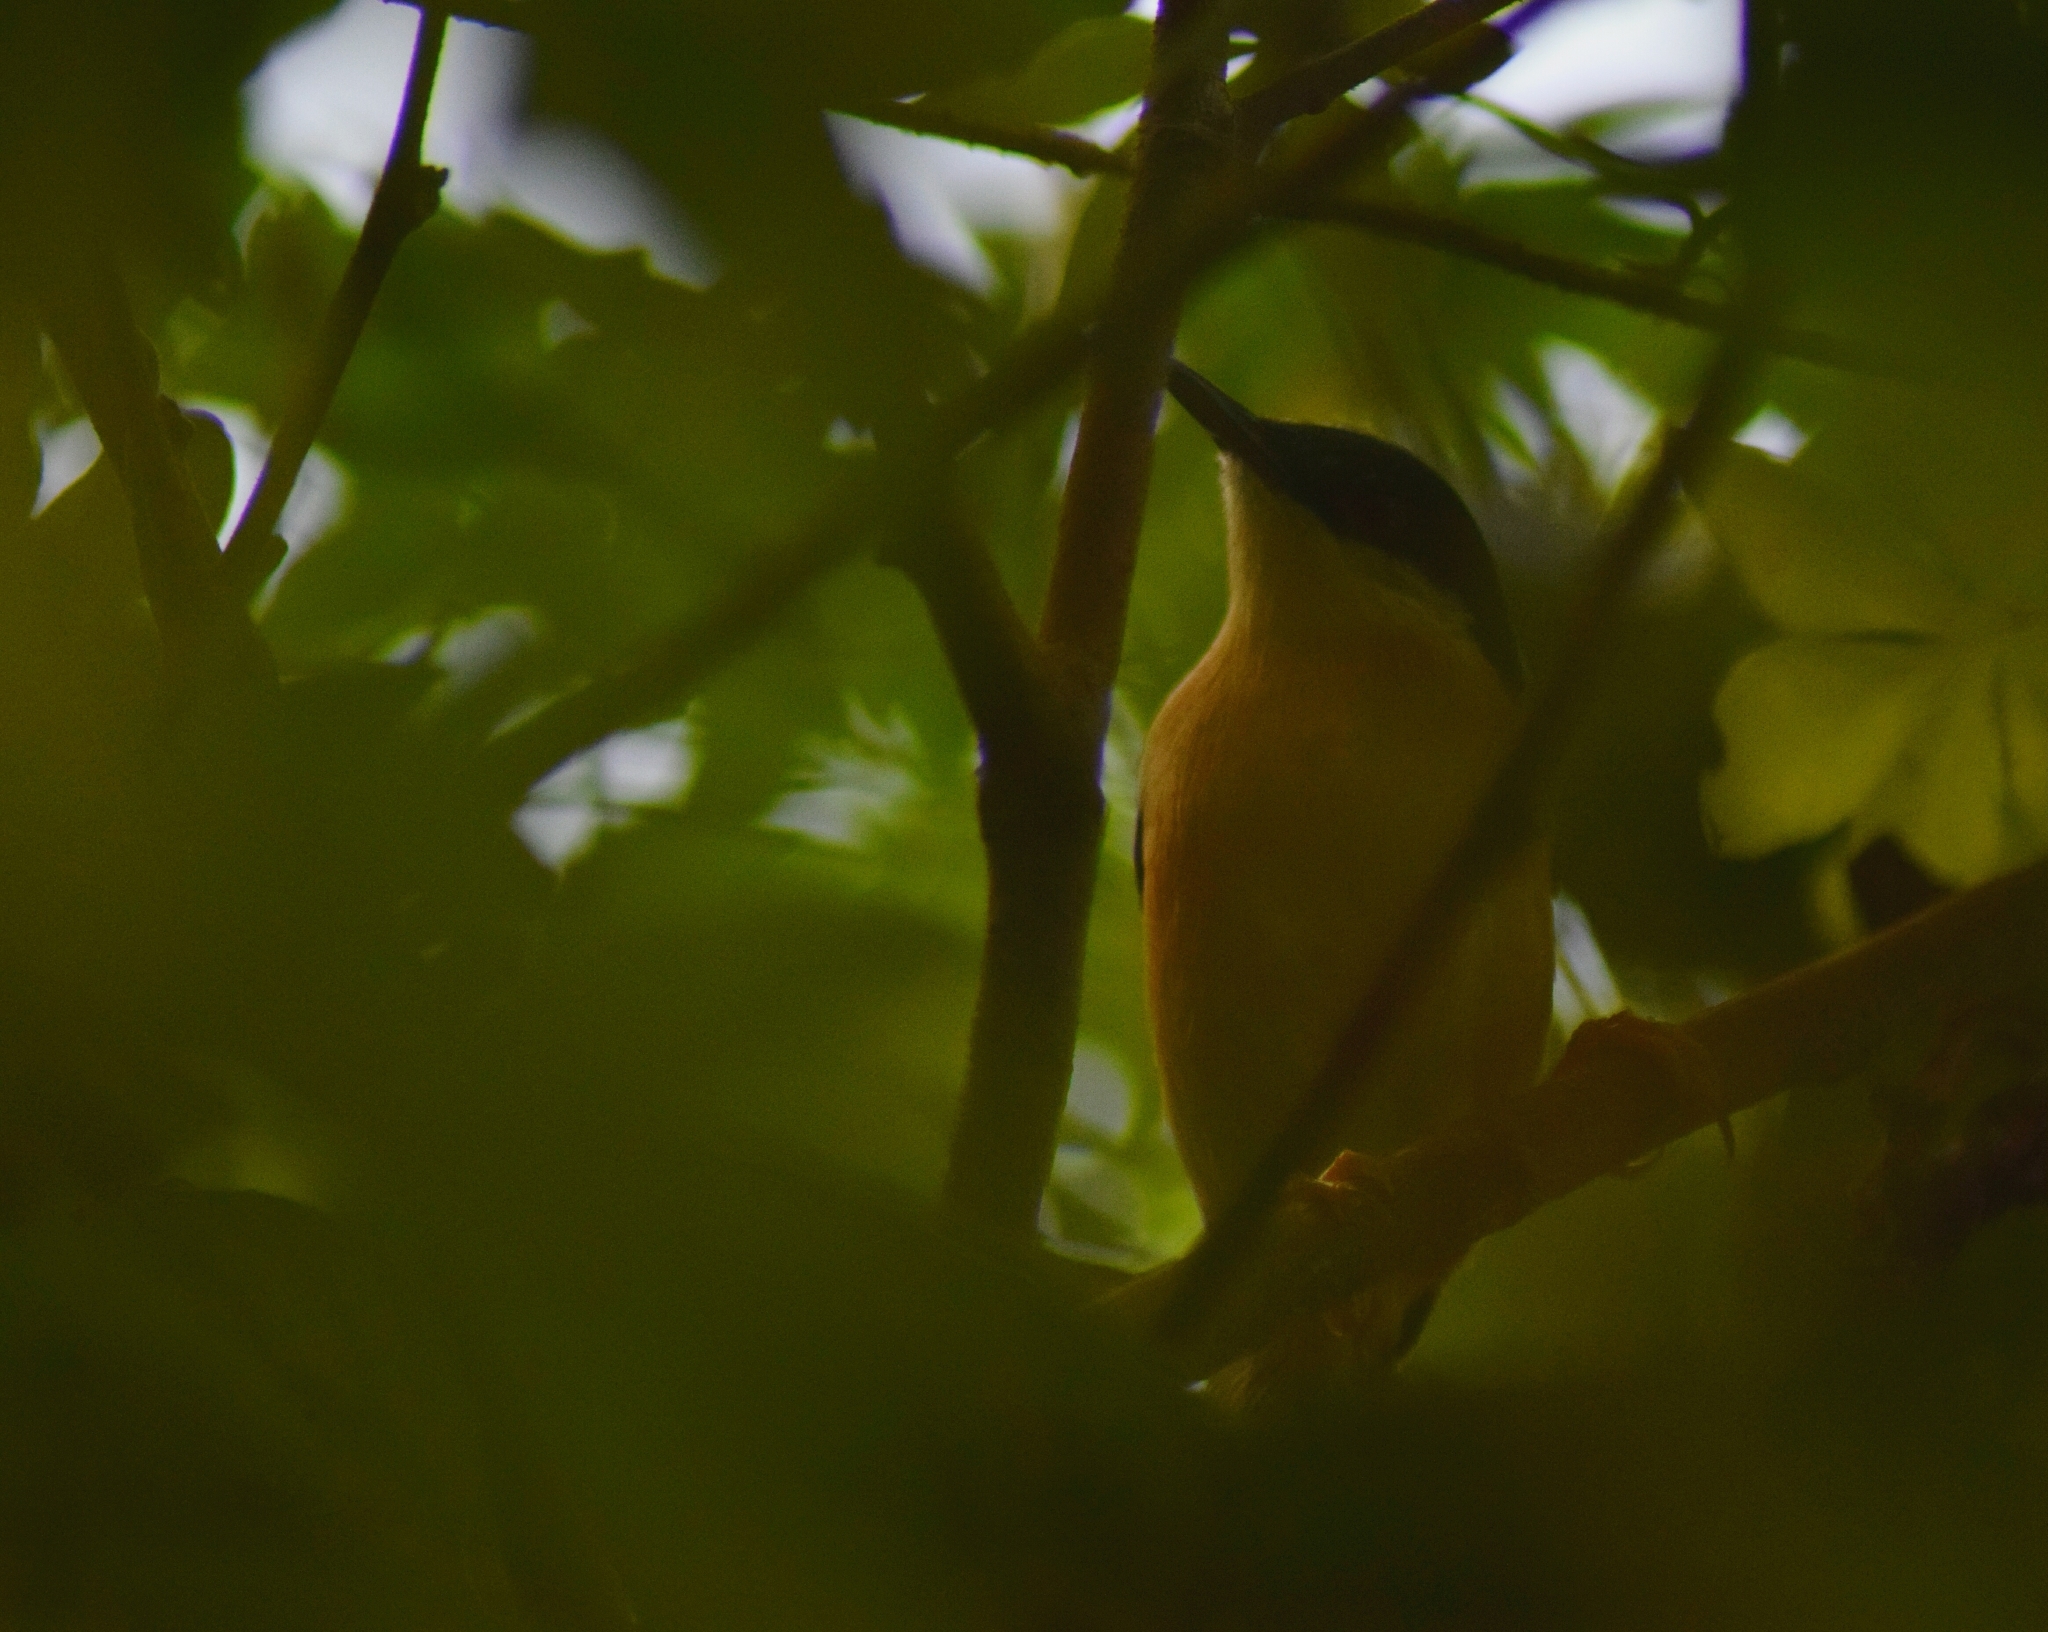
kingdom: Animalia
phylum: Chordata
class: Aves
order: Passeriformes
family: Cisticolidae
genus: Prinia
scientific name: Prinia socialis
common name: Ashy prinia
